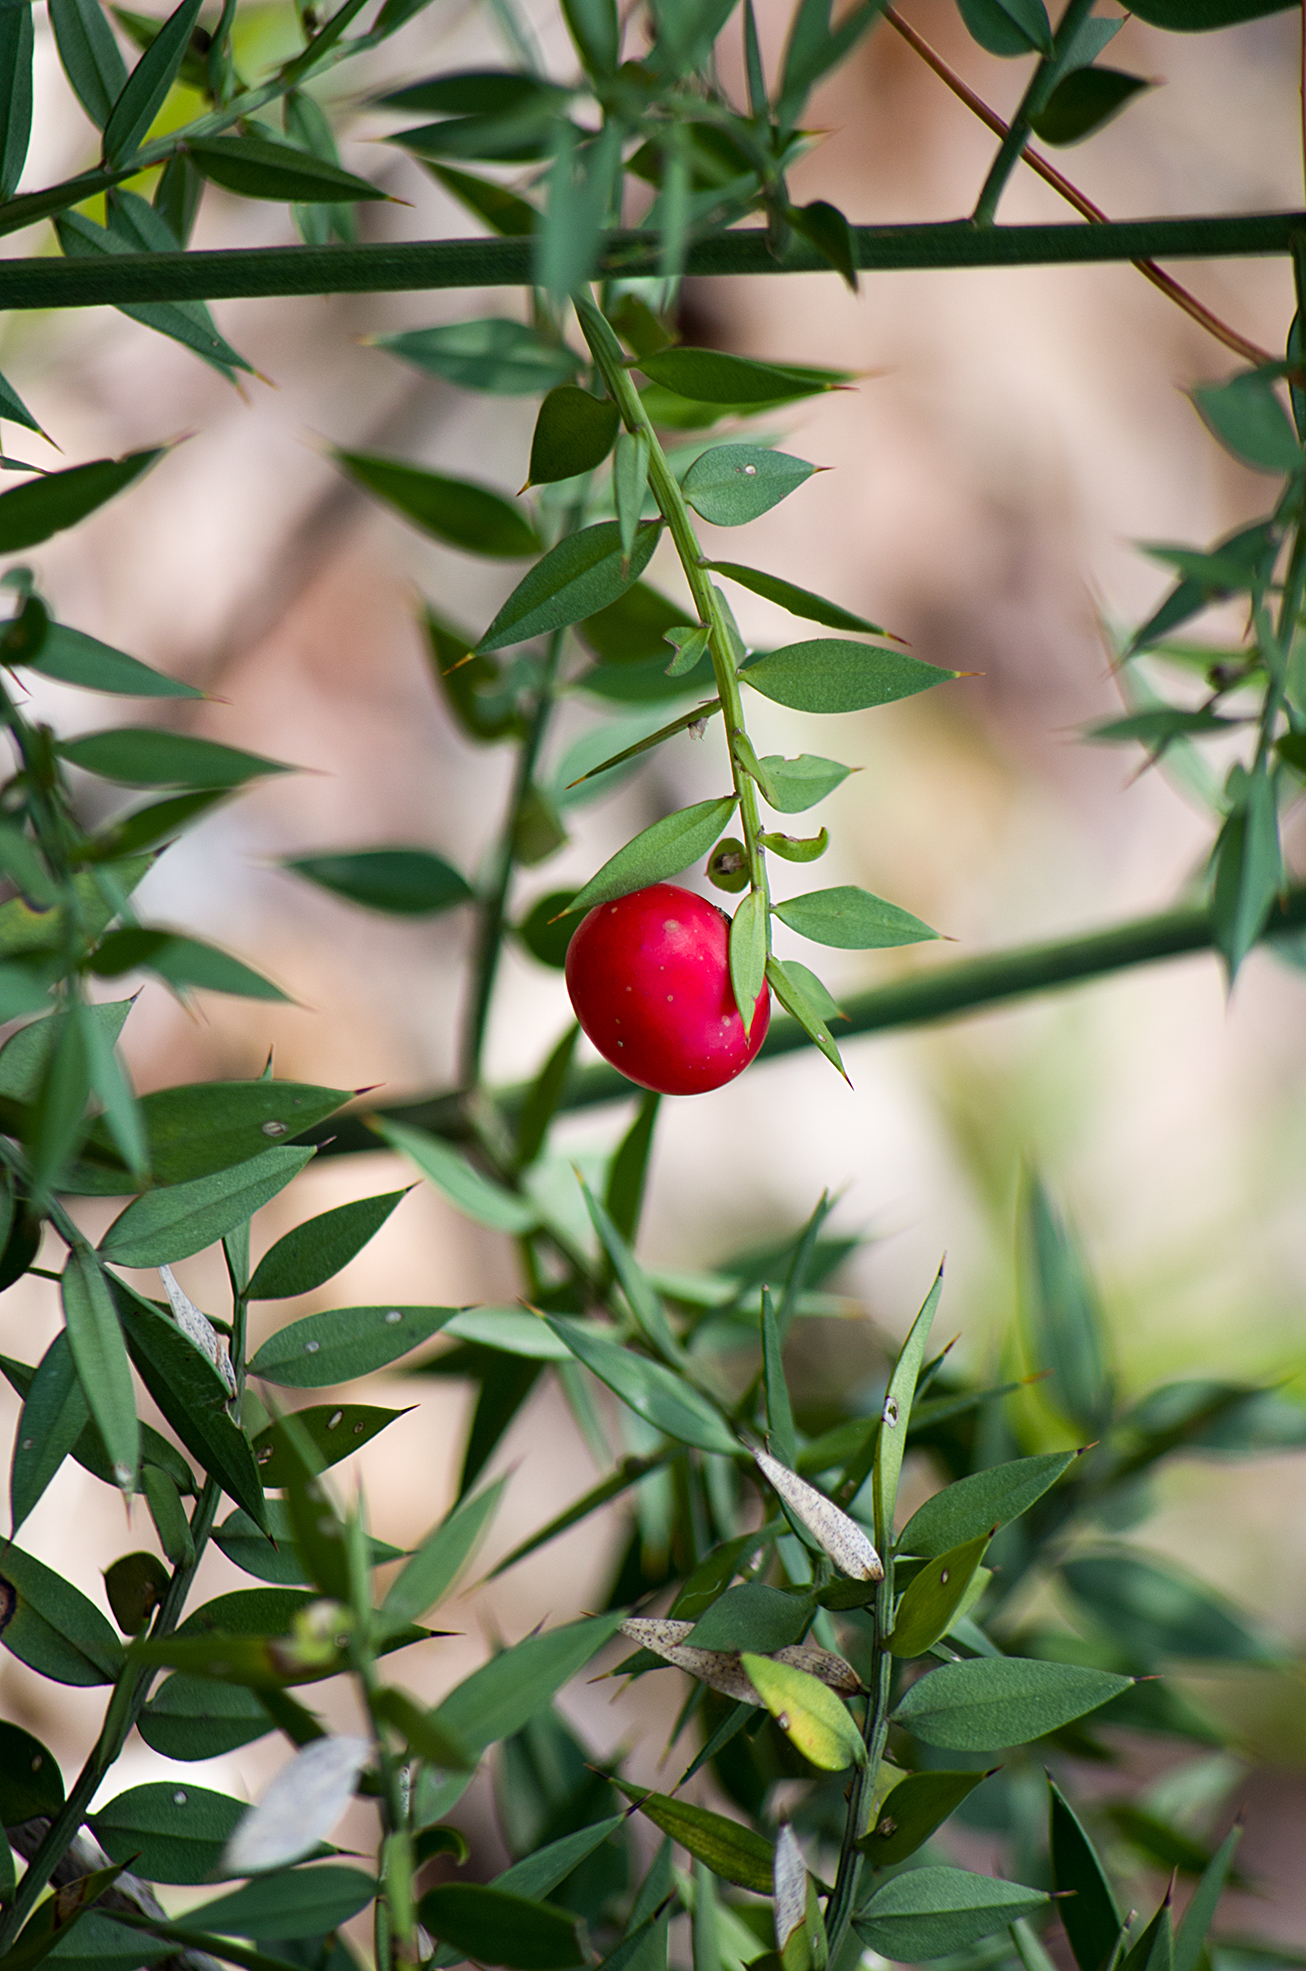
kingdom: Plantae
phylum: Tracheophyta
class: Liliopsida
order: Asparagales
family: Asparagaceae
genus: Ruscus
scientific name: Ruscus aculeatus
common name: Butcher's-broom
